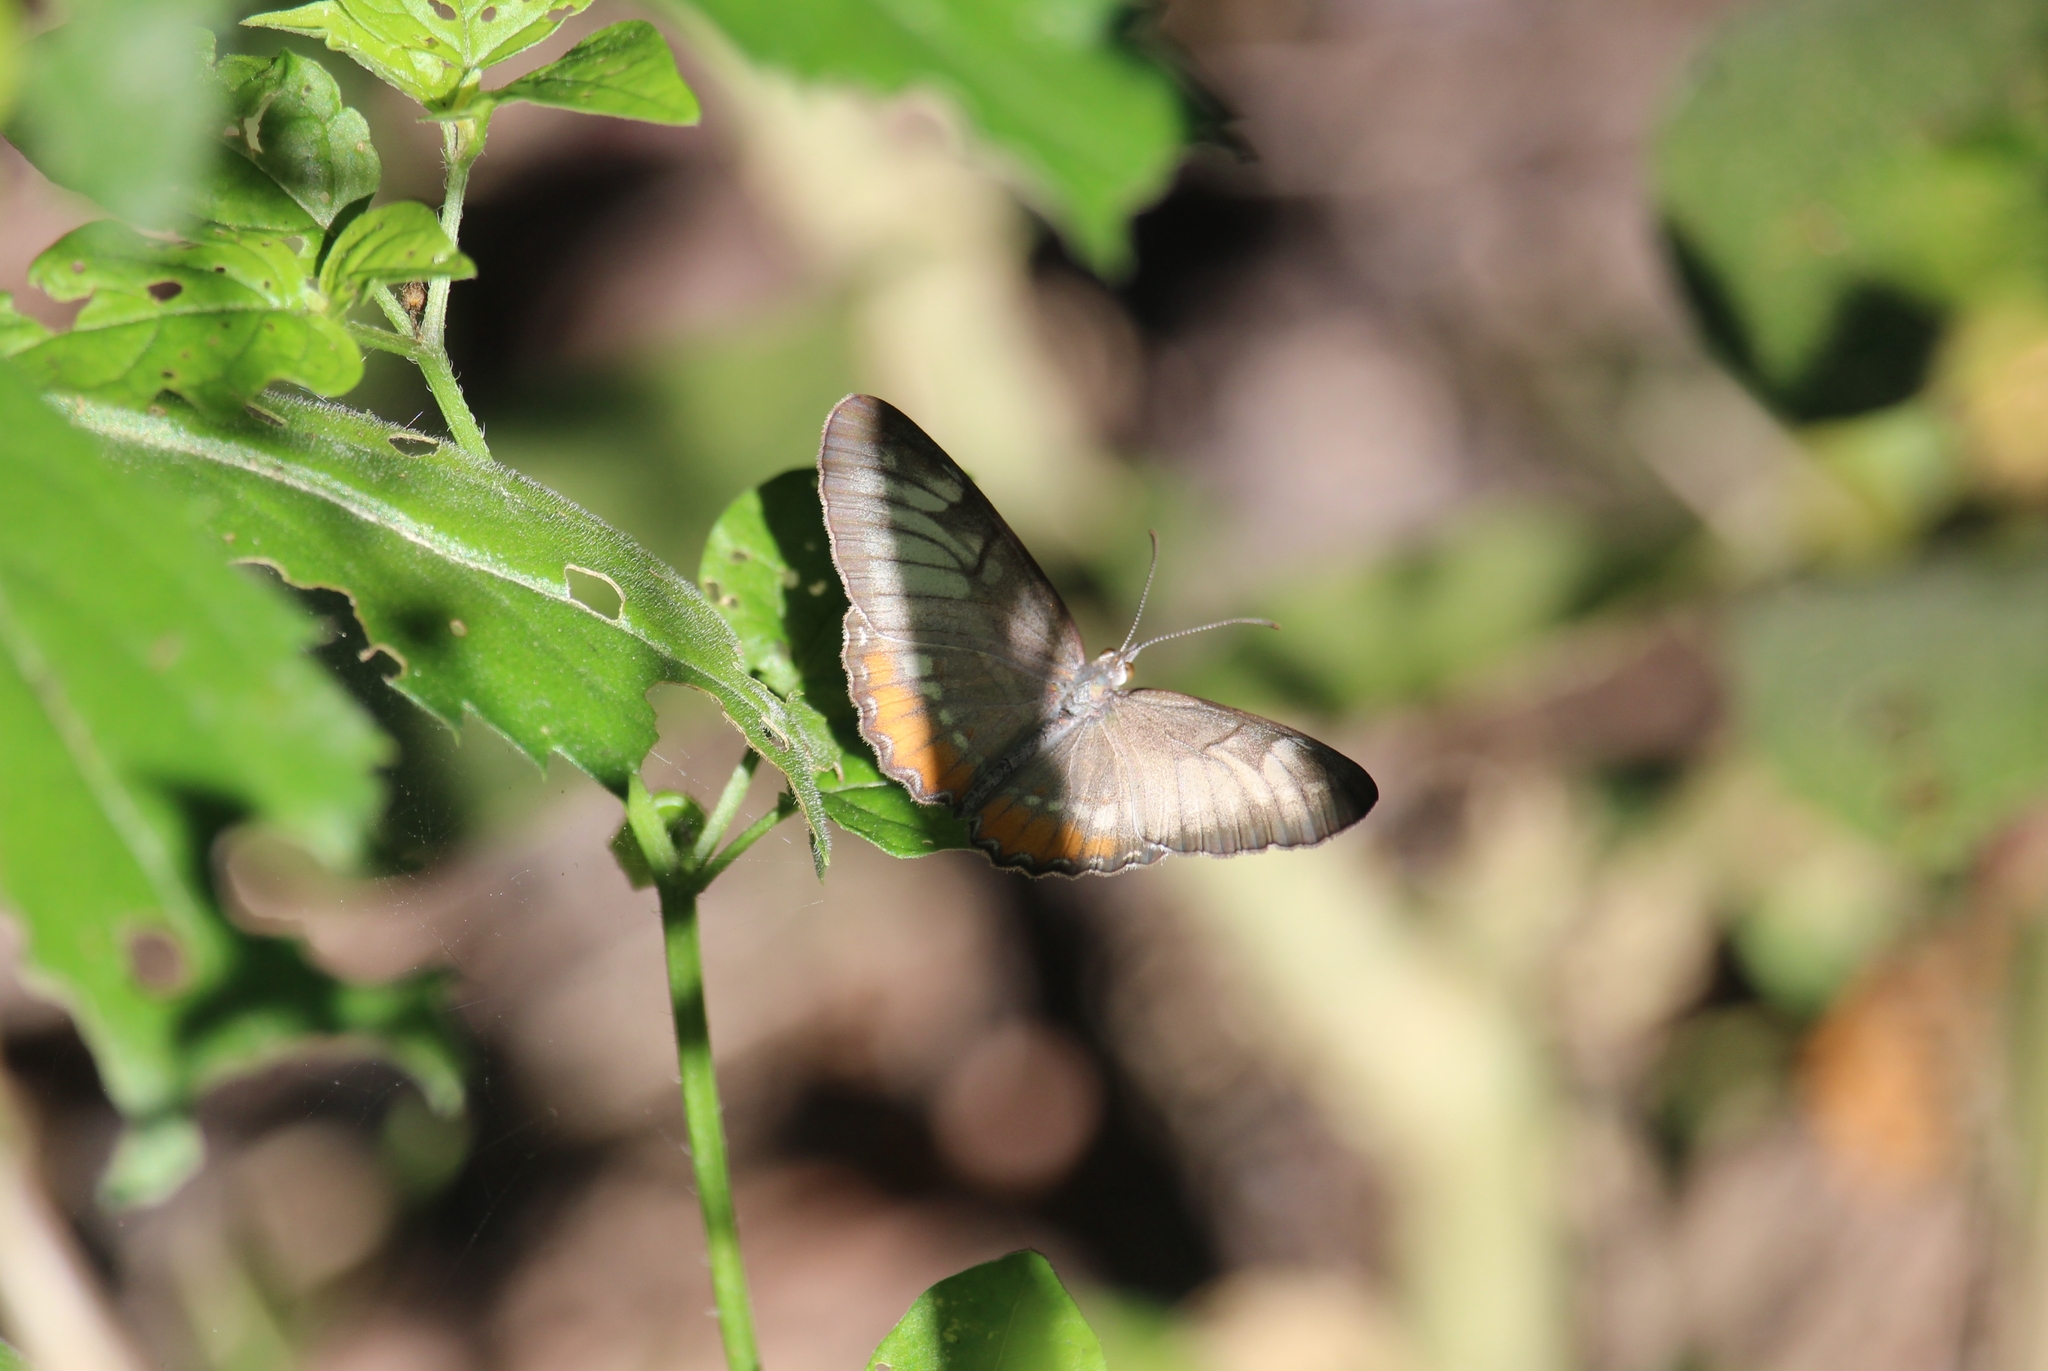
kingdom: Animalia
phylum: Arthropoda
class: Insecta
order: Lepidoptera
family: Nymphalidae
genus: Mestra
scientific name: Mestra amymone
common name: Common mestra
